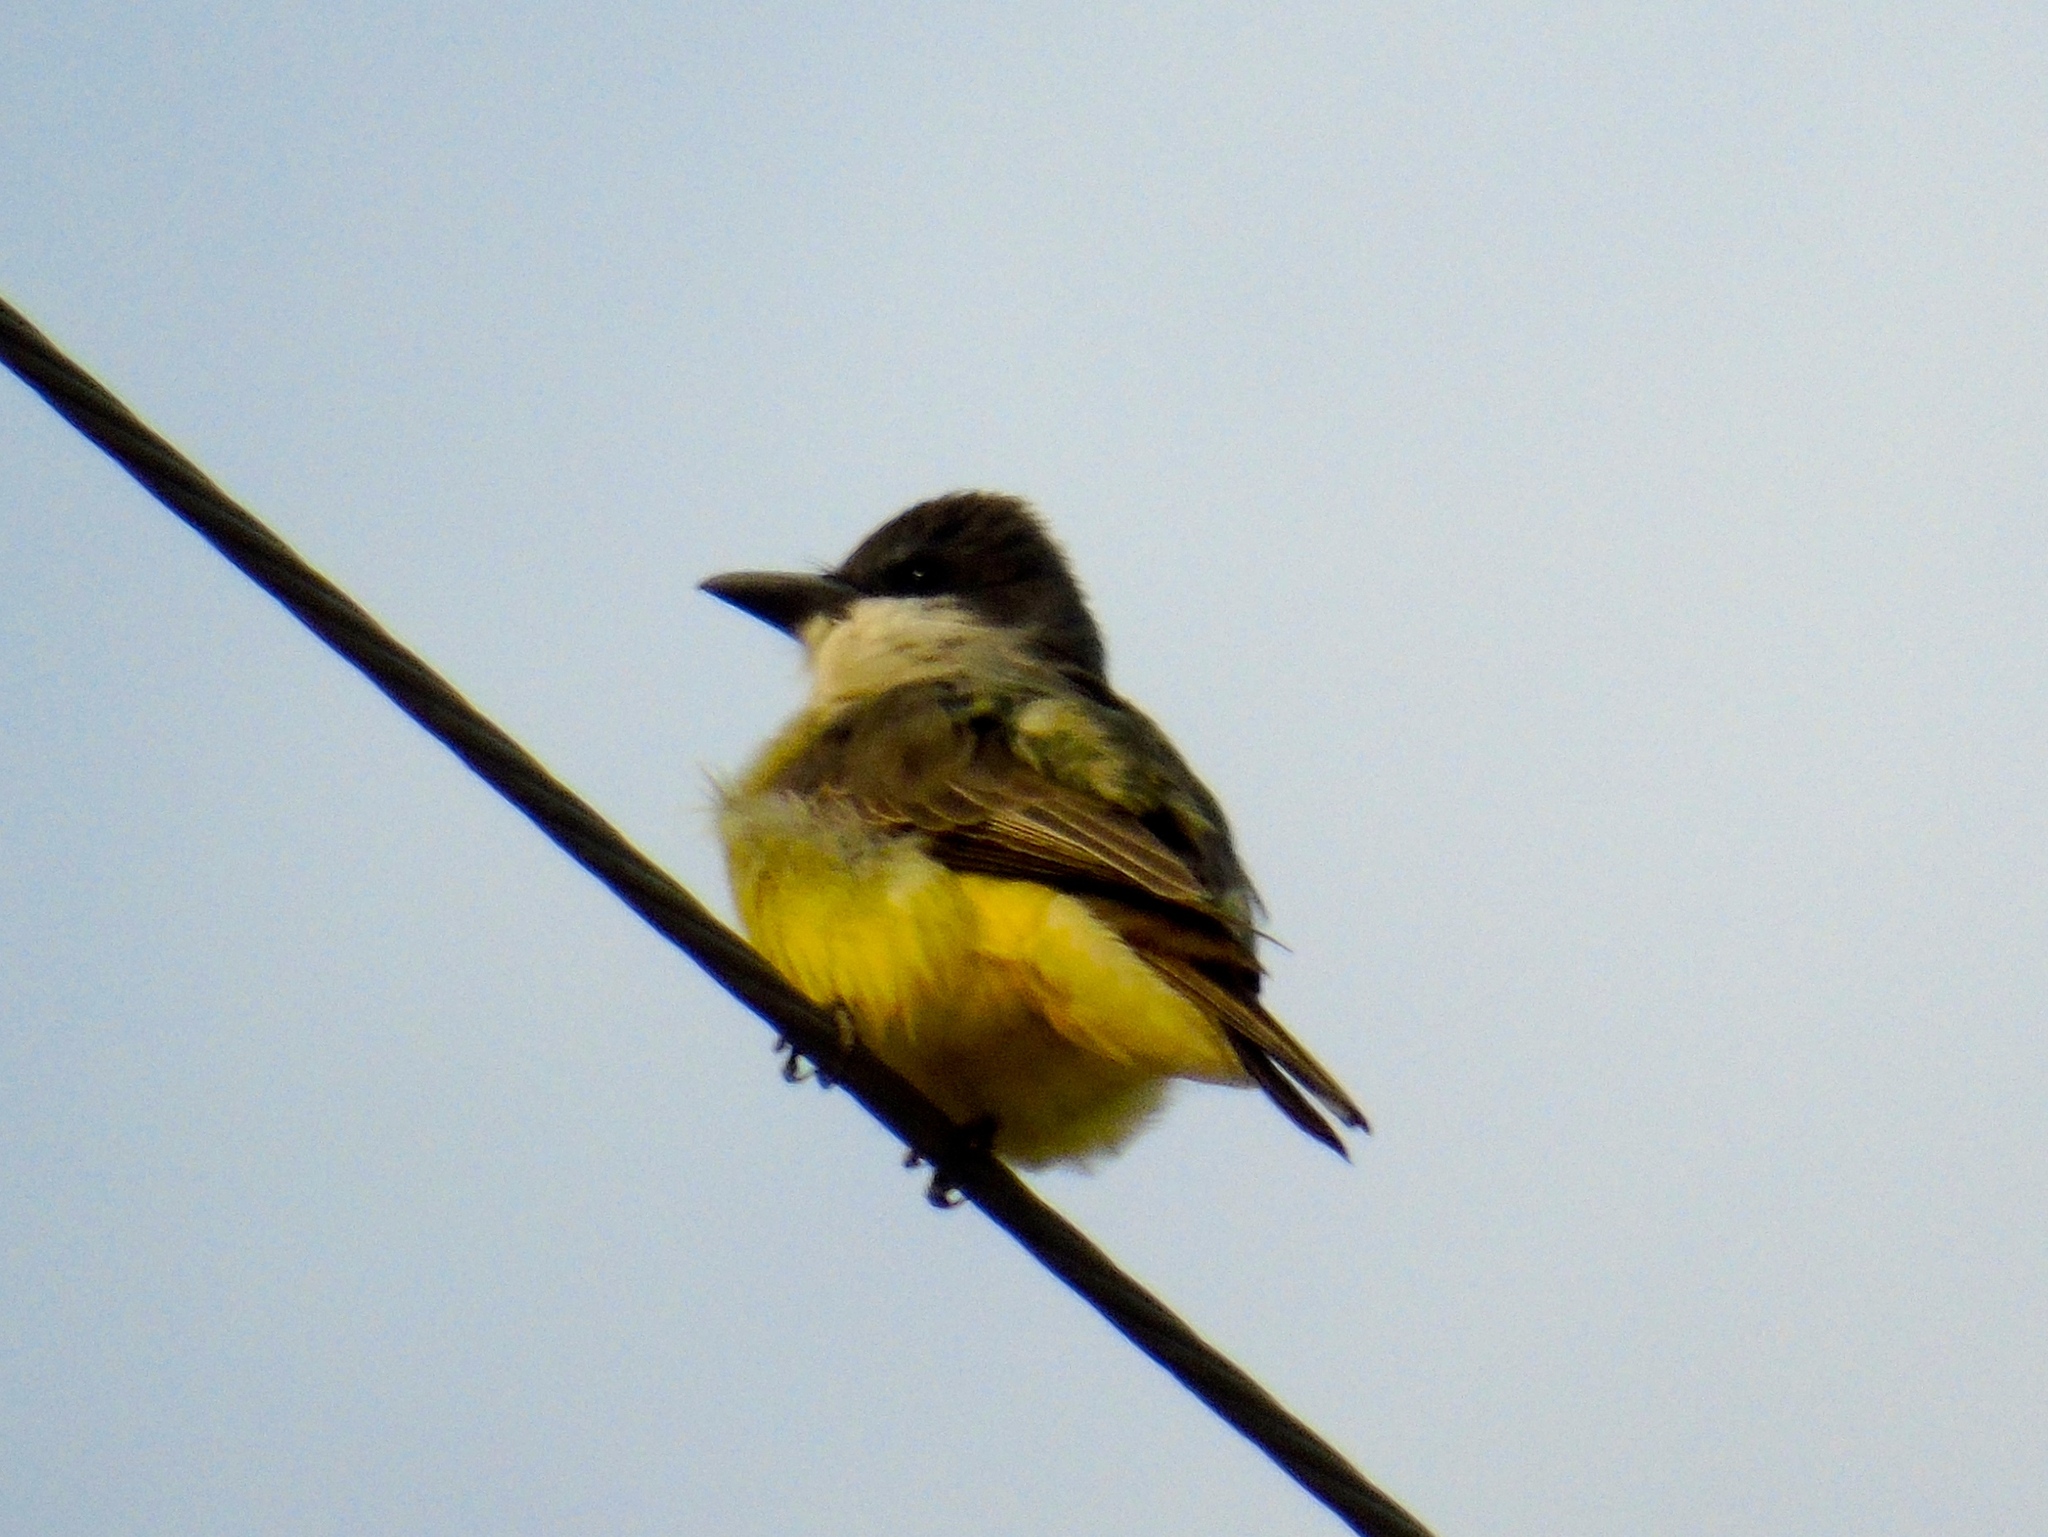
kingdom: Animalia
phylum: Chordata
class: Aves
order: Passeriformes
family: Tyrannidae
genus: Tyrannus
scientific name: Tyrannus crassirostris
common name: Thick-billed kingbird
